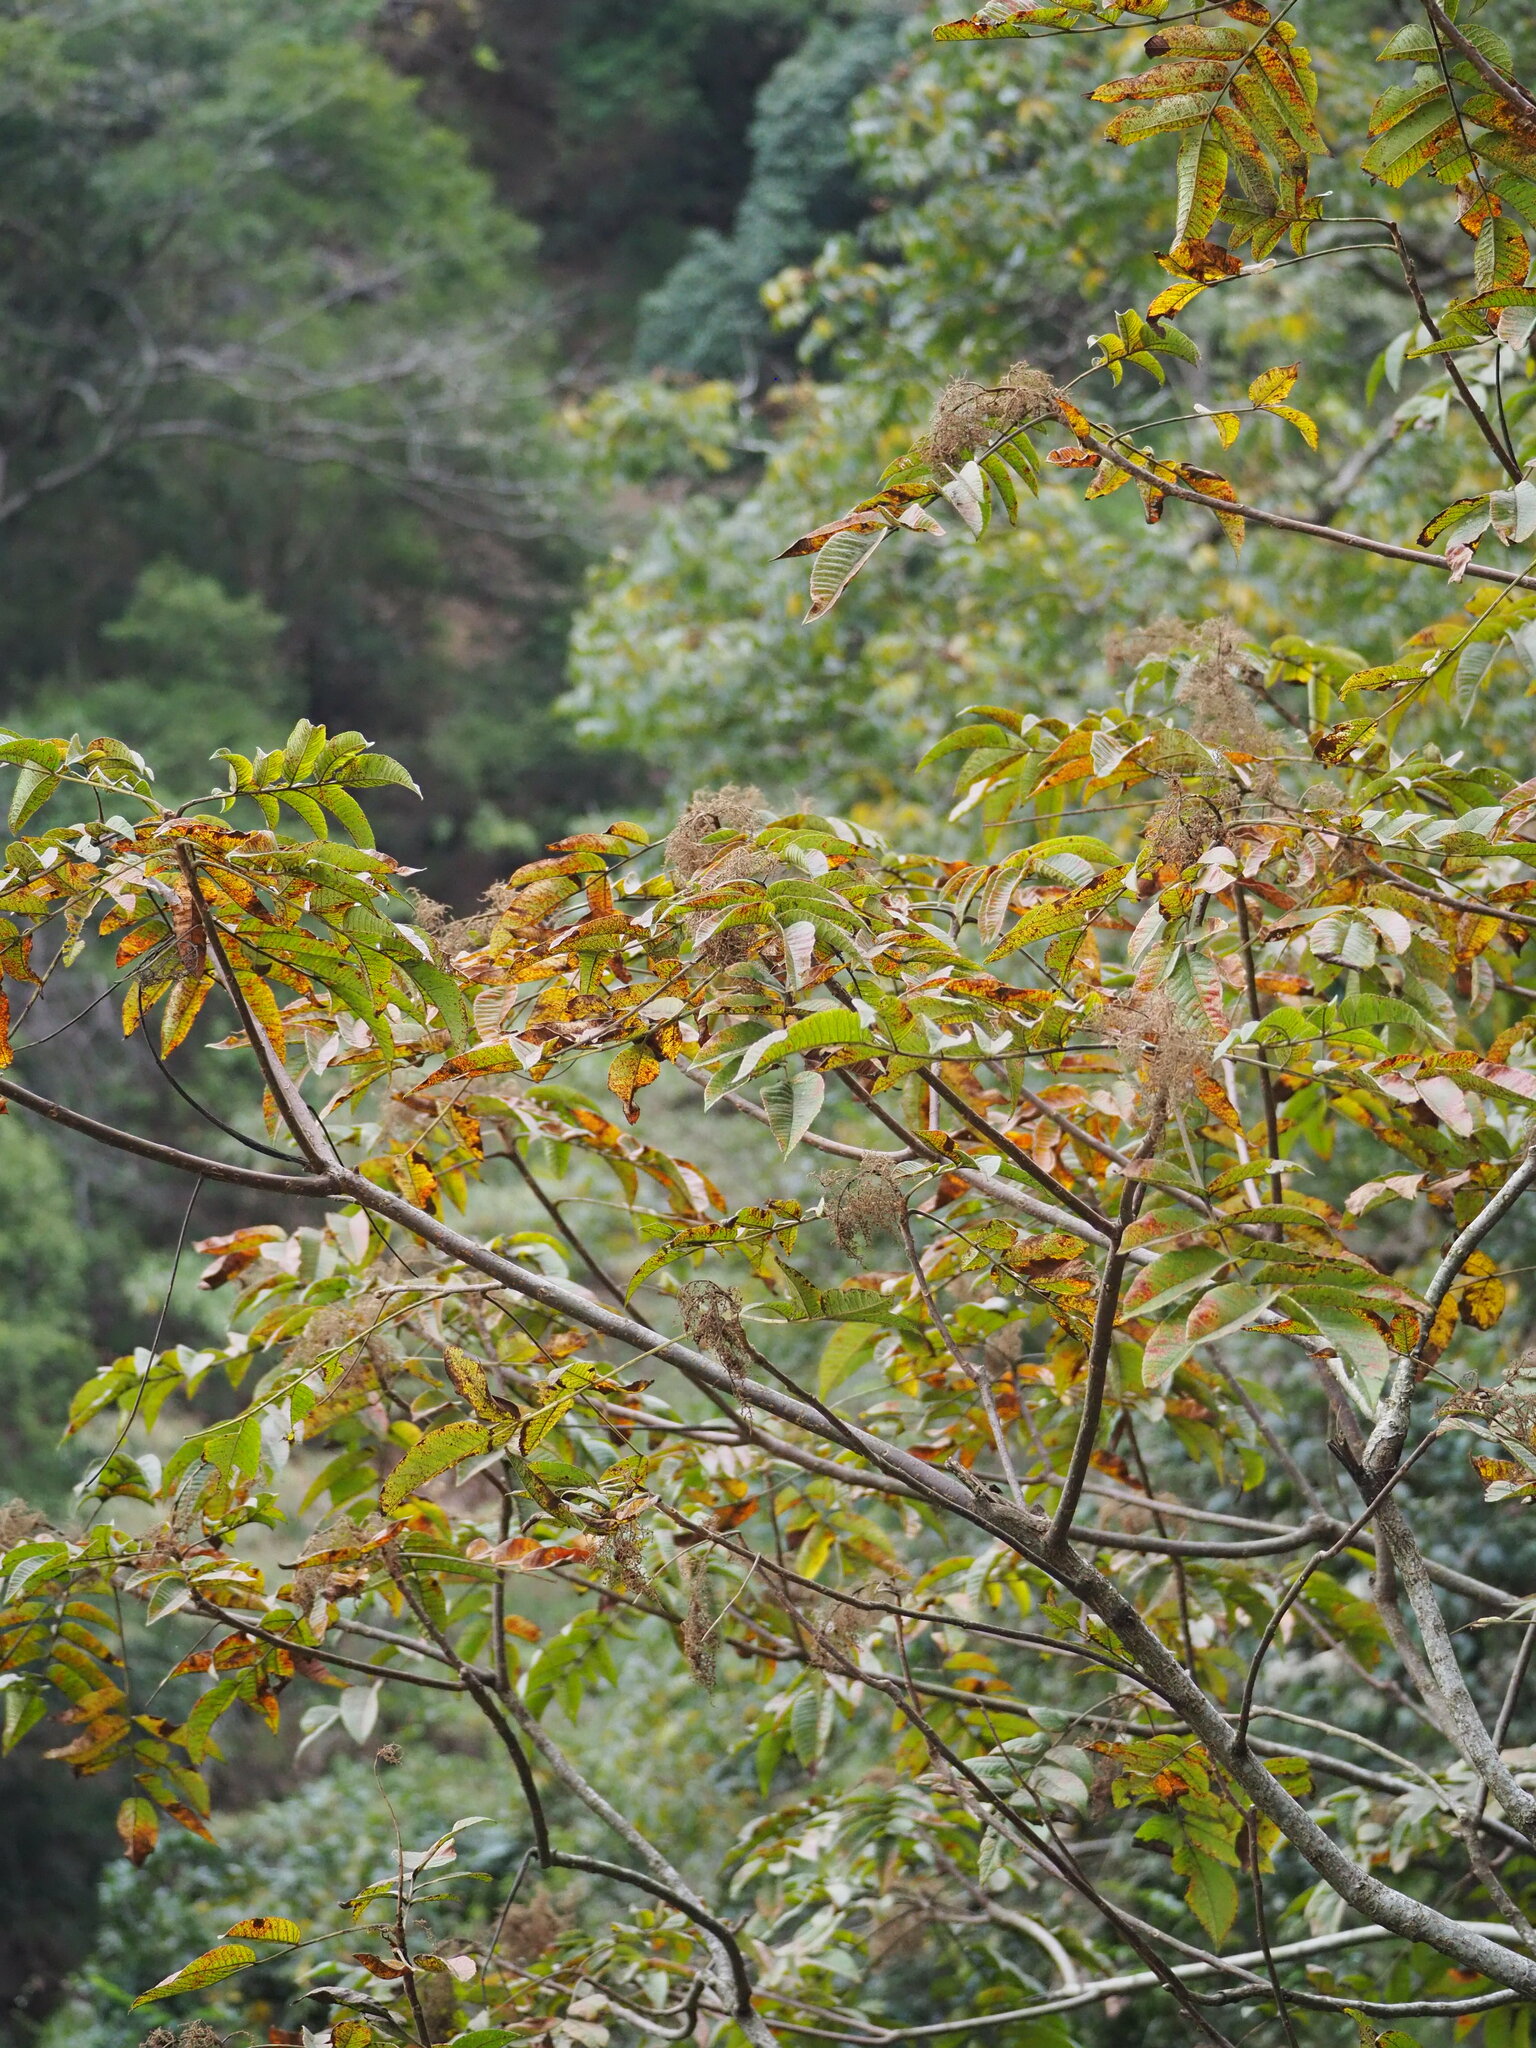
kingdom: Plantae
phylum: Tracheophyta
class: Magnoliopsida
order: Sapindales
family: Anacardiaceae
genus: Rhus
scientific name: Rhus chinensis
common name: Chinese gall
